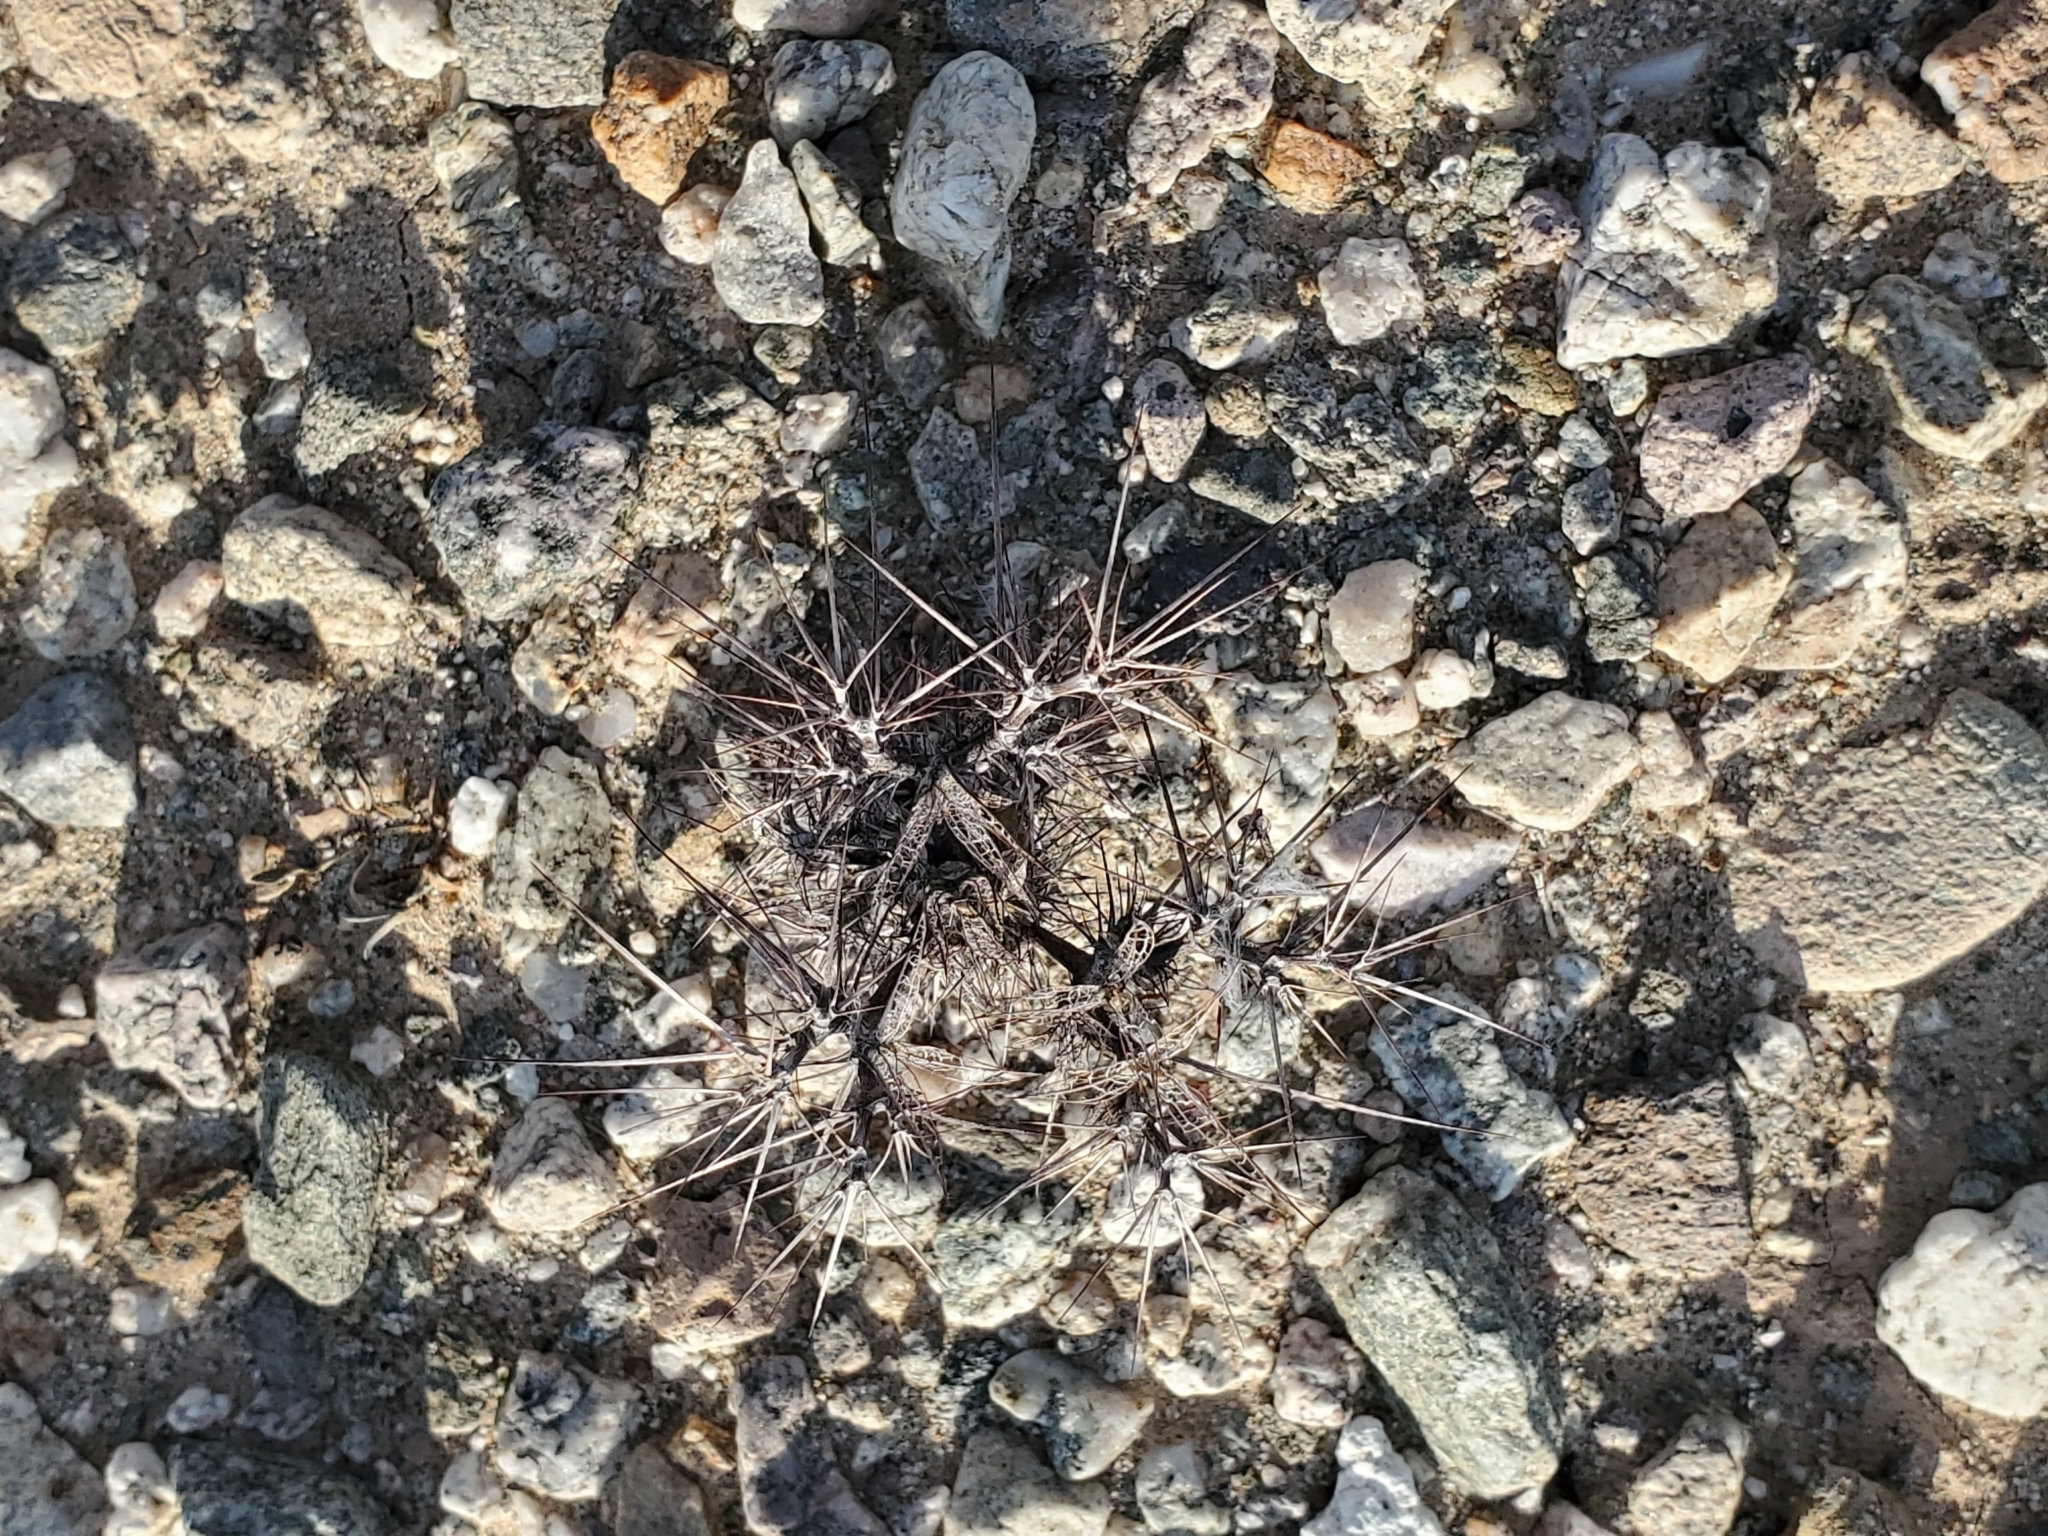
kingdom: Plantae
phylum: Tracheophyta
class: Magnoliopsida
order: Caryophyllales
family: Polygonaceae
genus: Chorizanthe
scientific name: Chorizanthe rigida
